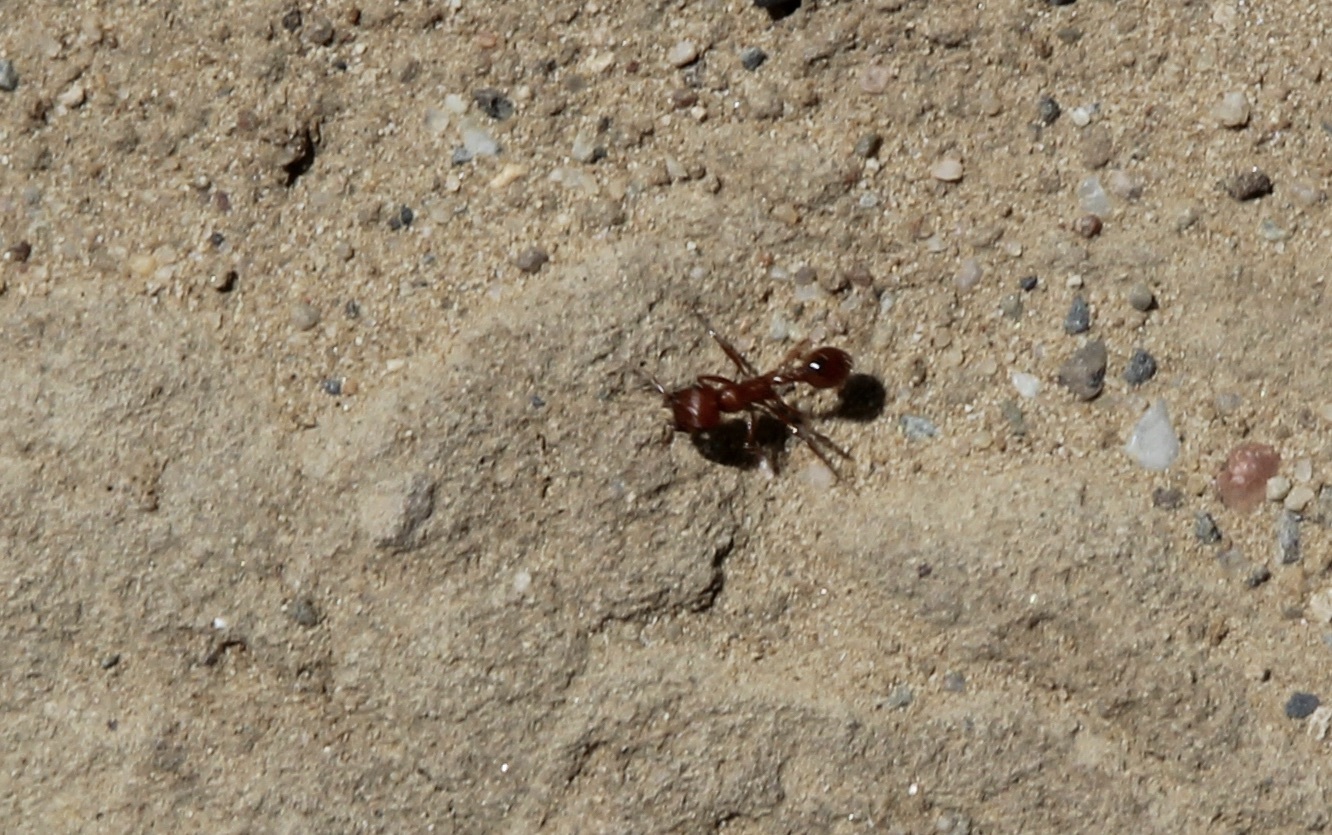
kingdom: Animalia
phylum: Arthropoda
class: Insecta
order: Hymenoptera
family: Formicidae
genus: Pogonomyrmex
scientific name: Pogonomyrmex californicus
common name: California harvester ant
